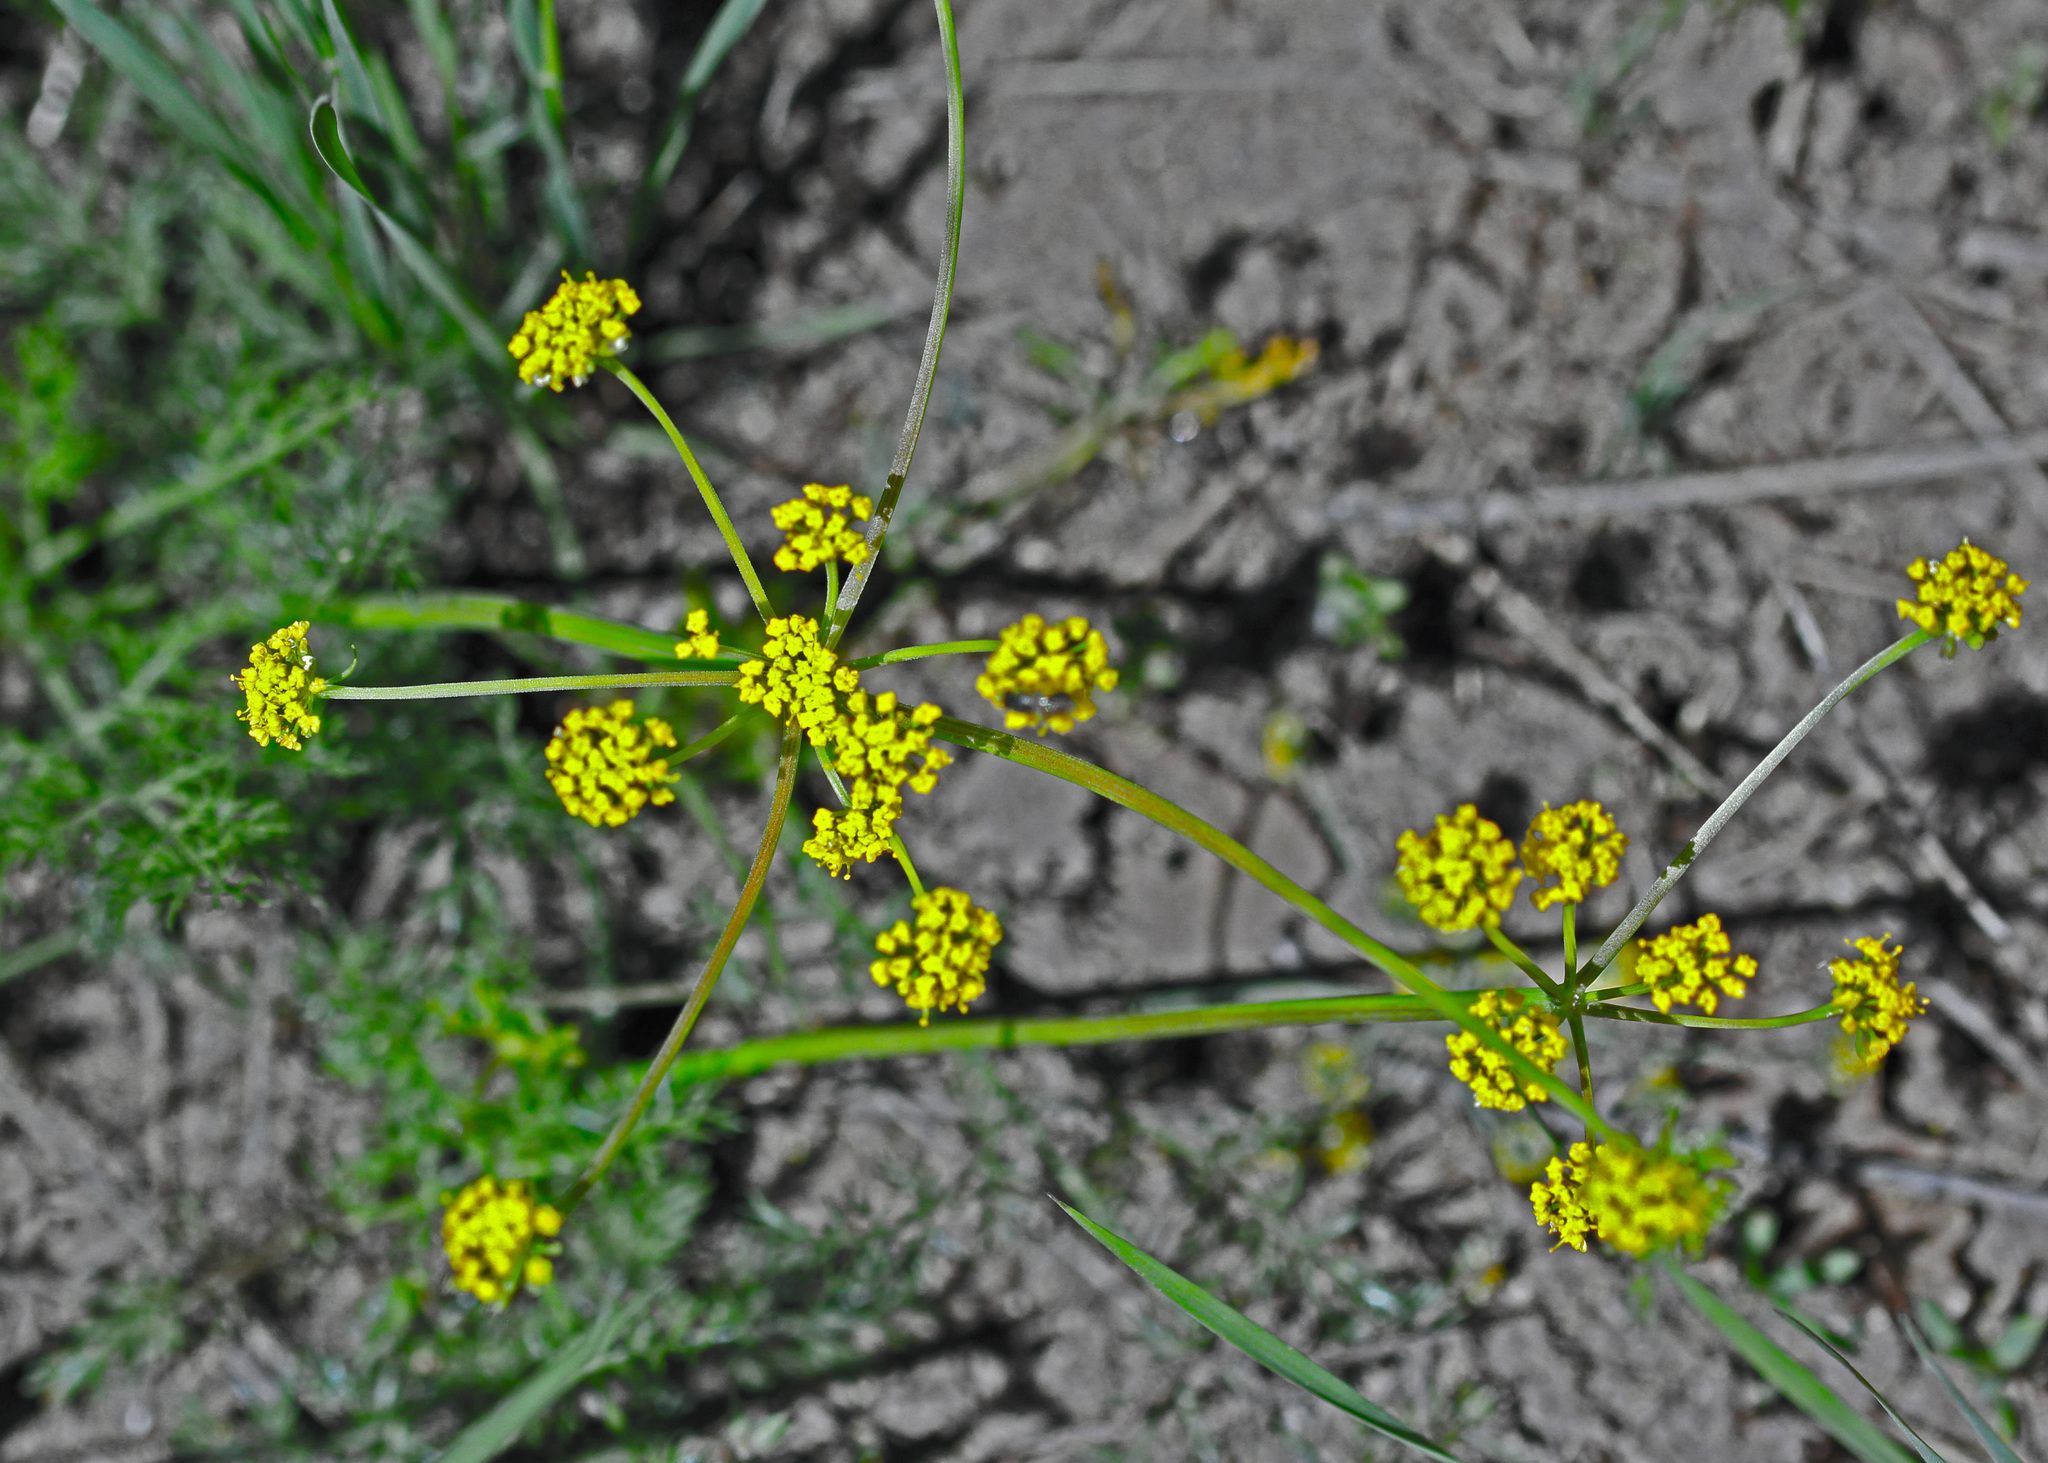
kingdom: Plantae
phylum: Tracheophyta
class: Magnoliopsida
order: Apiales
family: Apiaceae
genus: Cymopterus
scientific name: Cymopterus lemmonii
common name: Lemmon's spring-parsley
